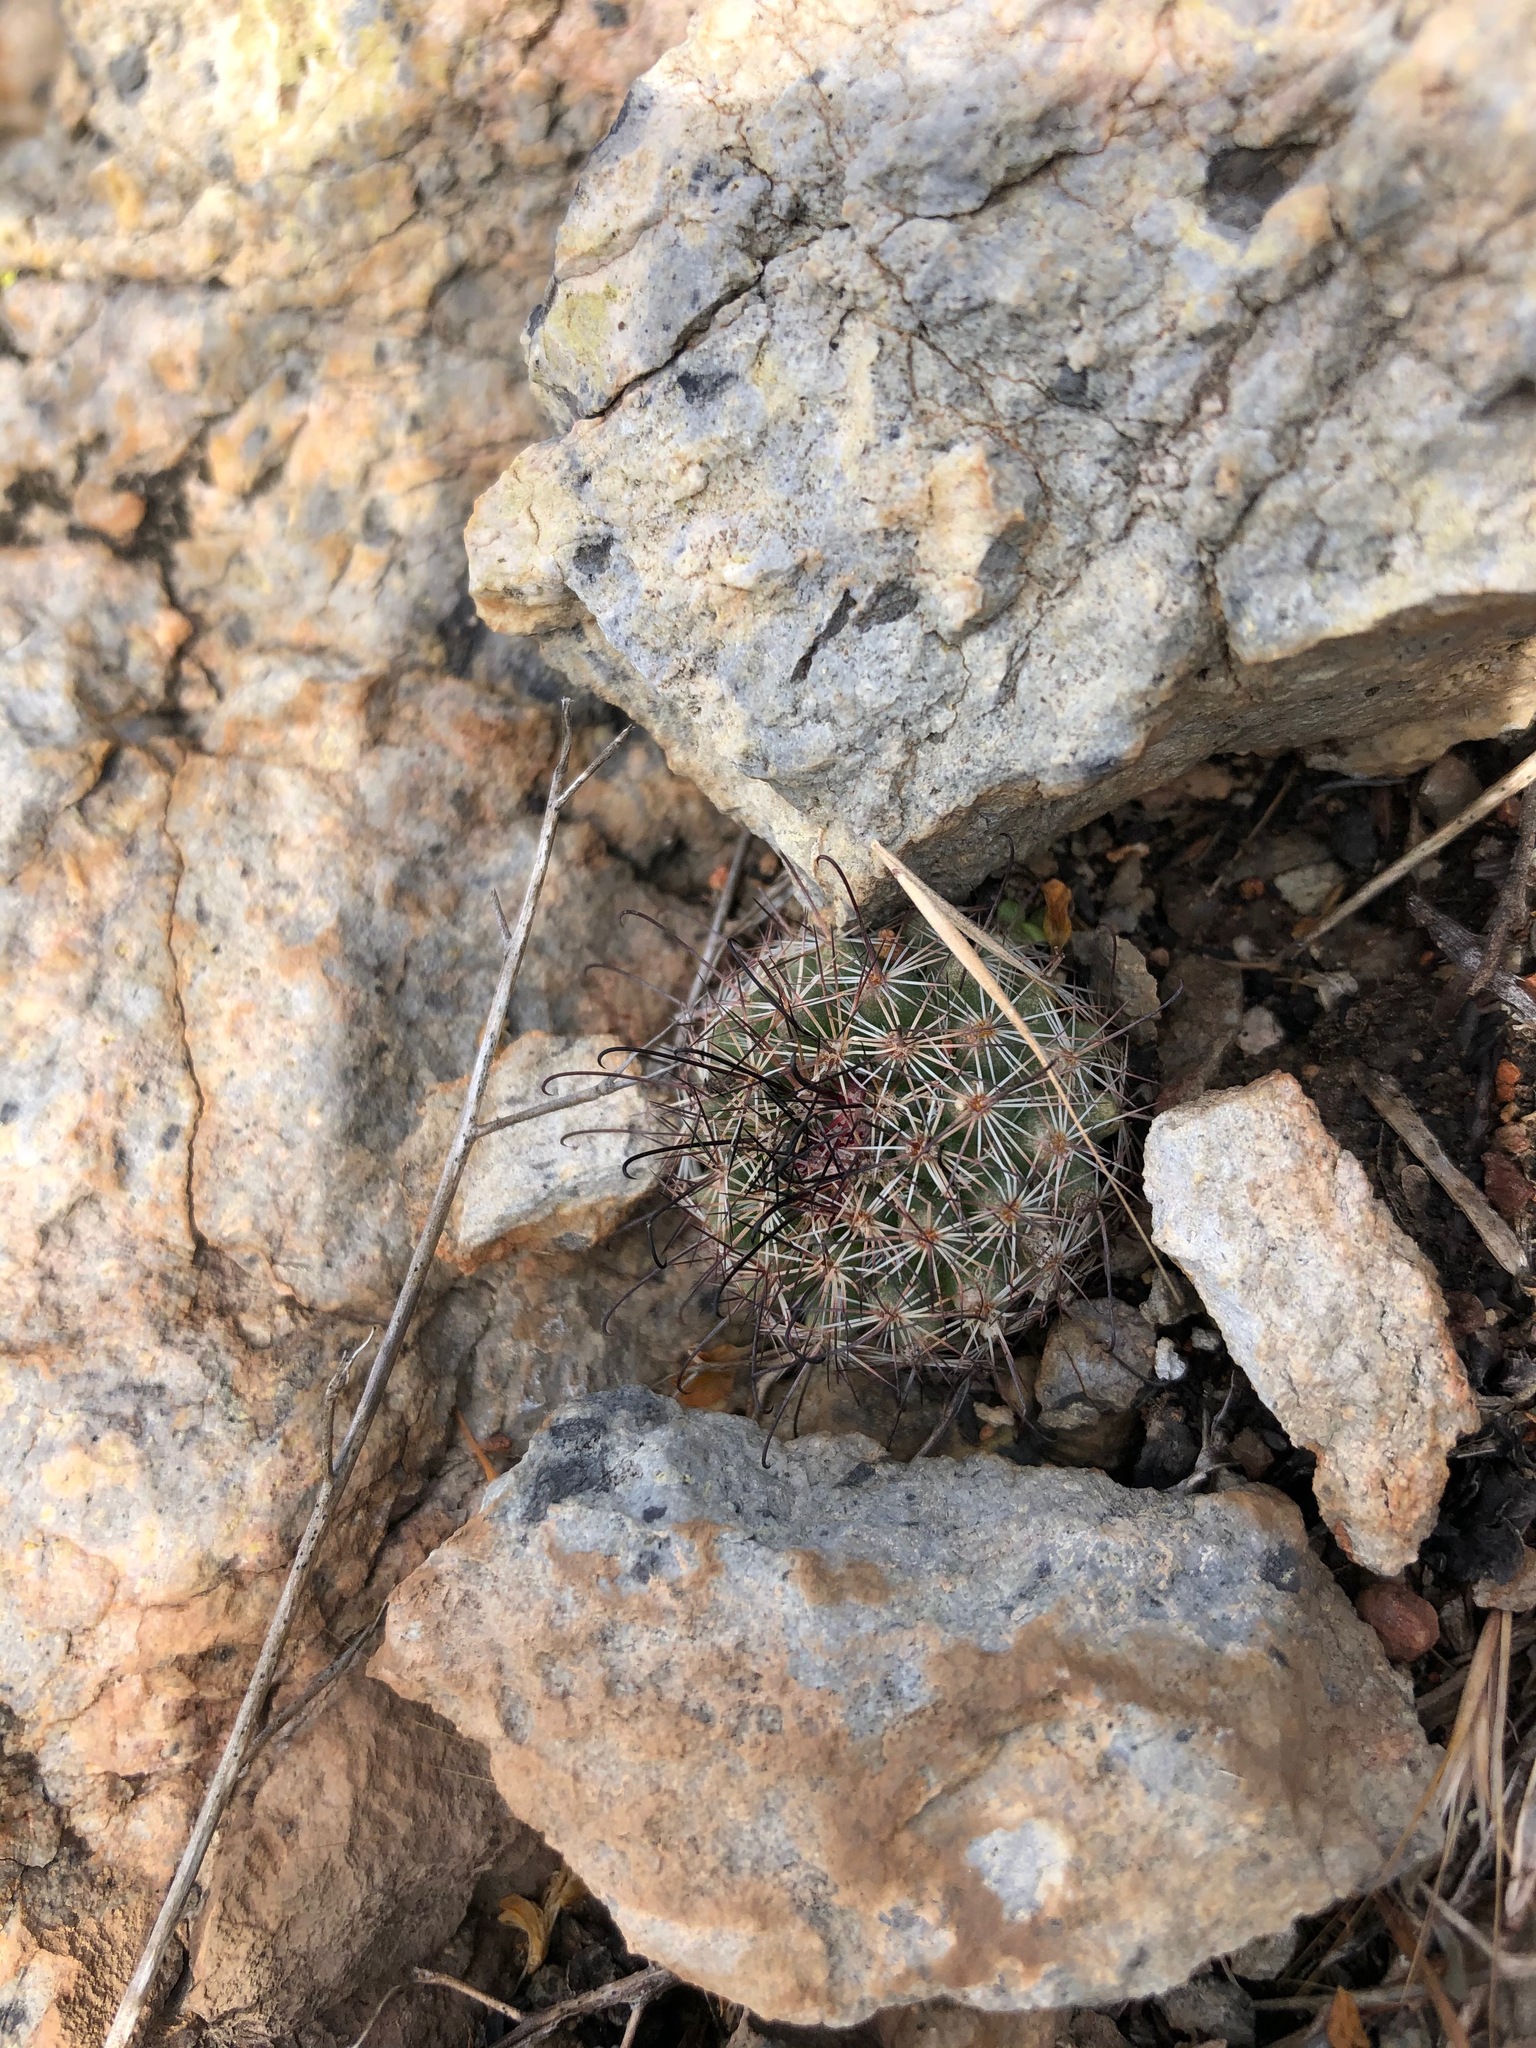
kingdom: Plantae
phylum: Tracheophyta
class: Magnoliopsida
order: Caryophyllales
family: Cactaceae
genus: Cochemiea
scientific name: Cochemiea dioica
